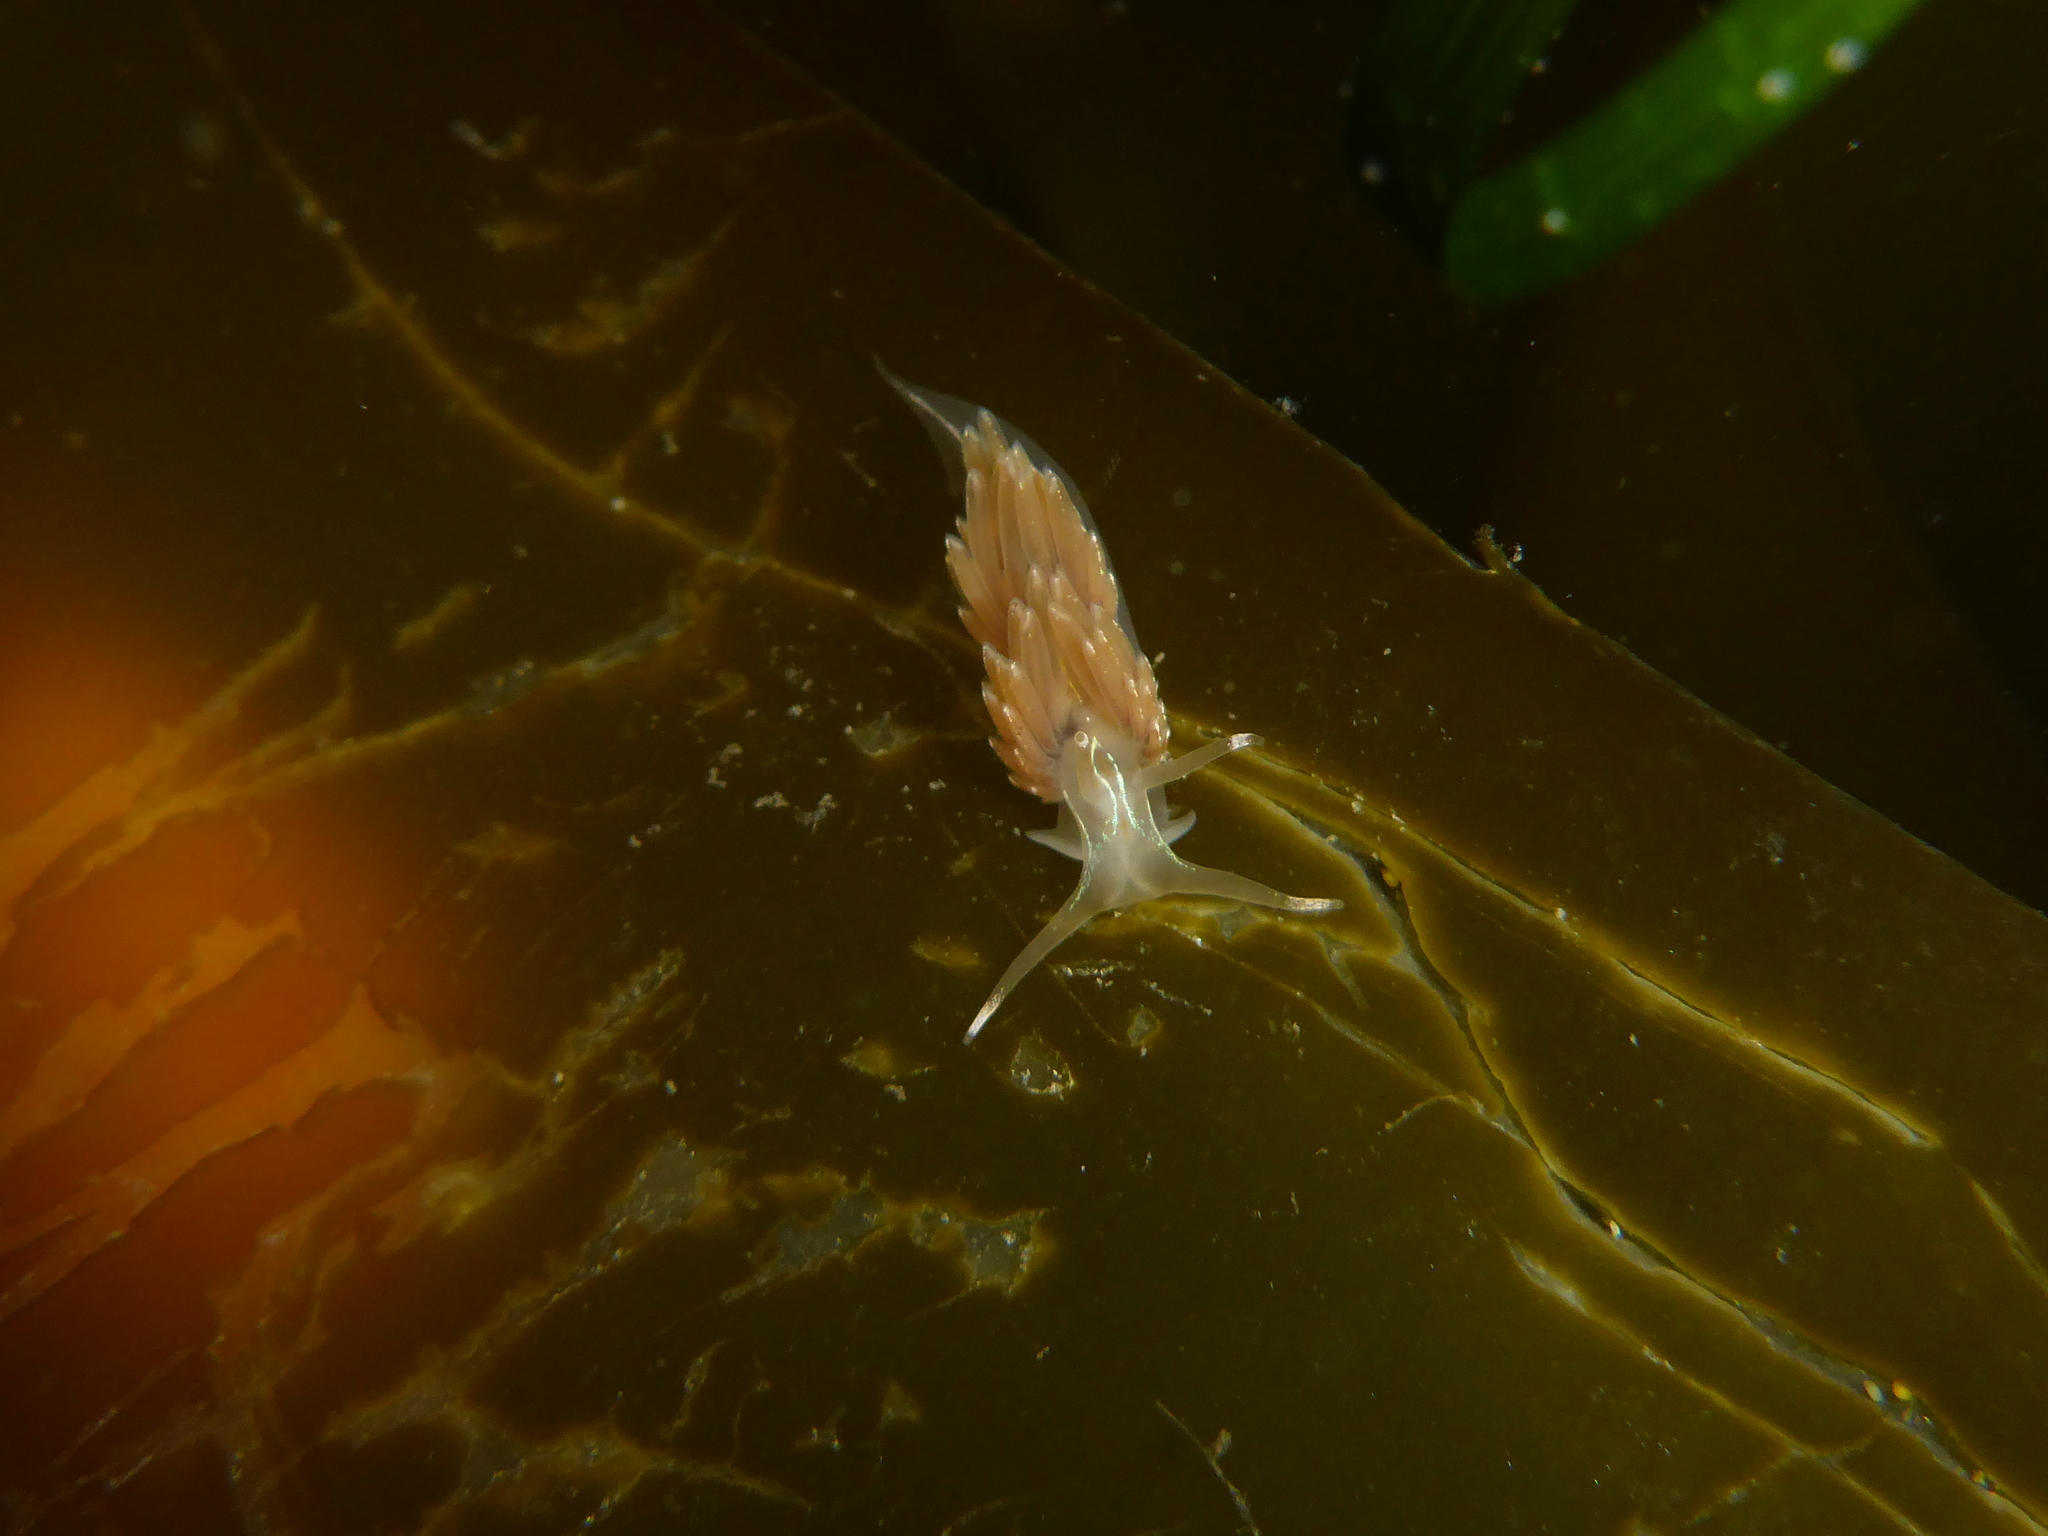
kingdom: Animalia
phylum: Mollusca
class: Gastropoda
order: Nudibranchia
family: Myrrhinidae
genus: Hermissenda
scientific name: Hermissenda crassicornis
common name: Hermissenda
